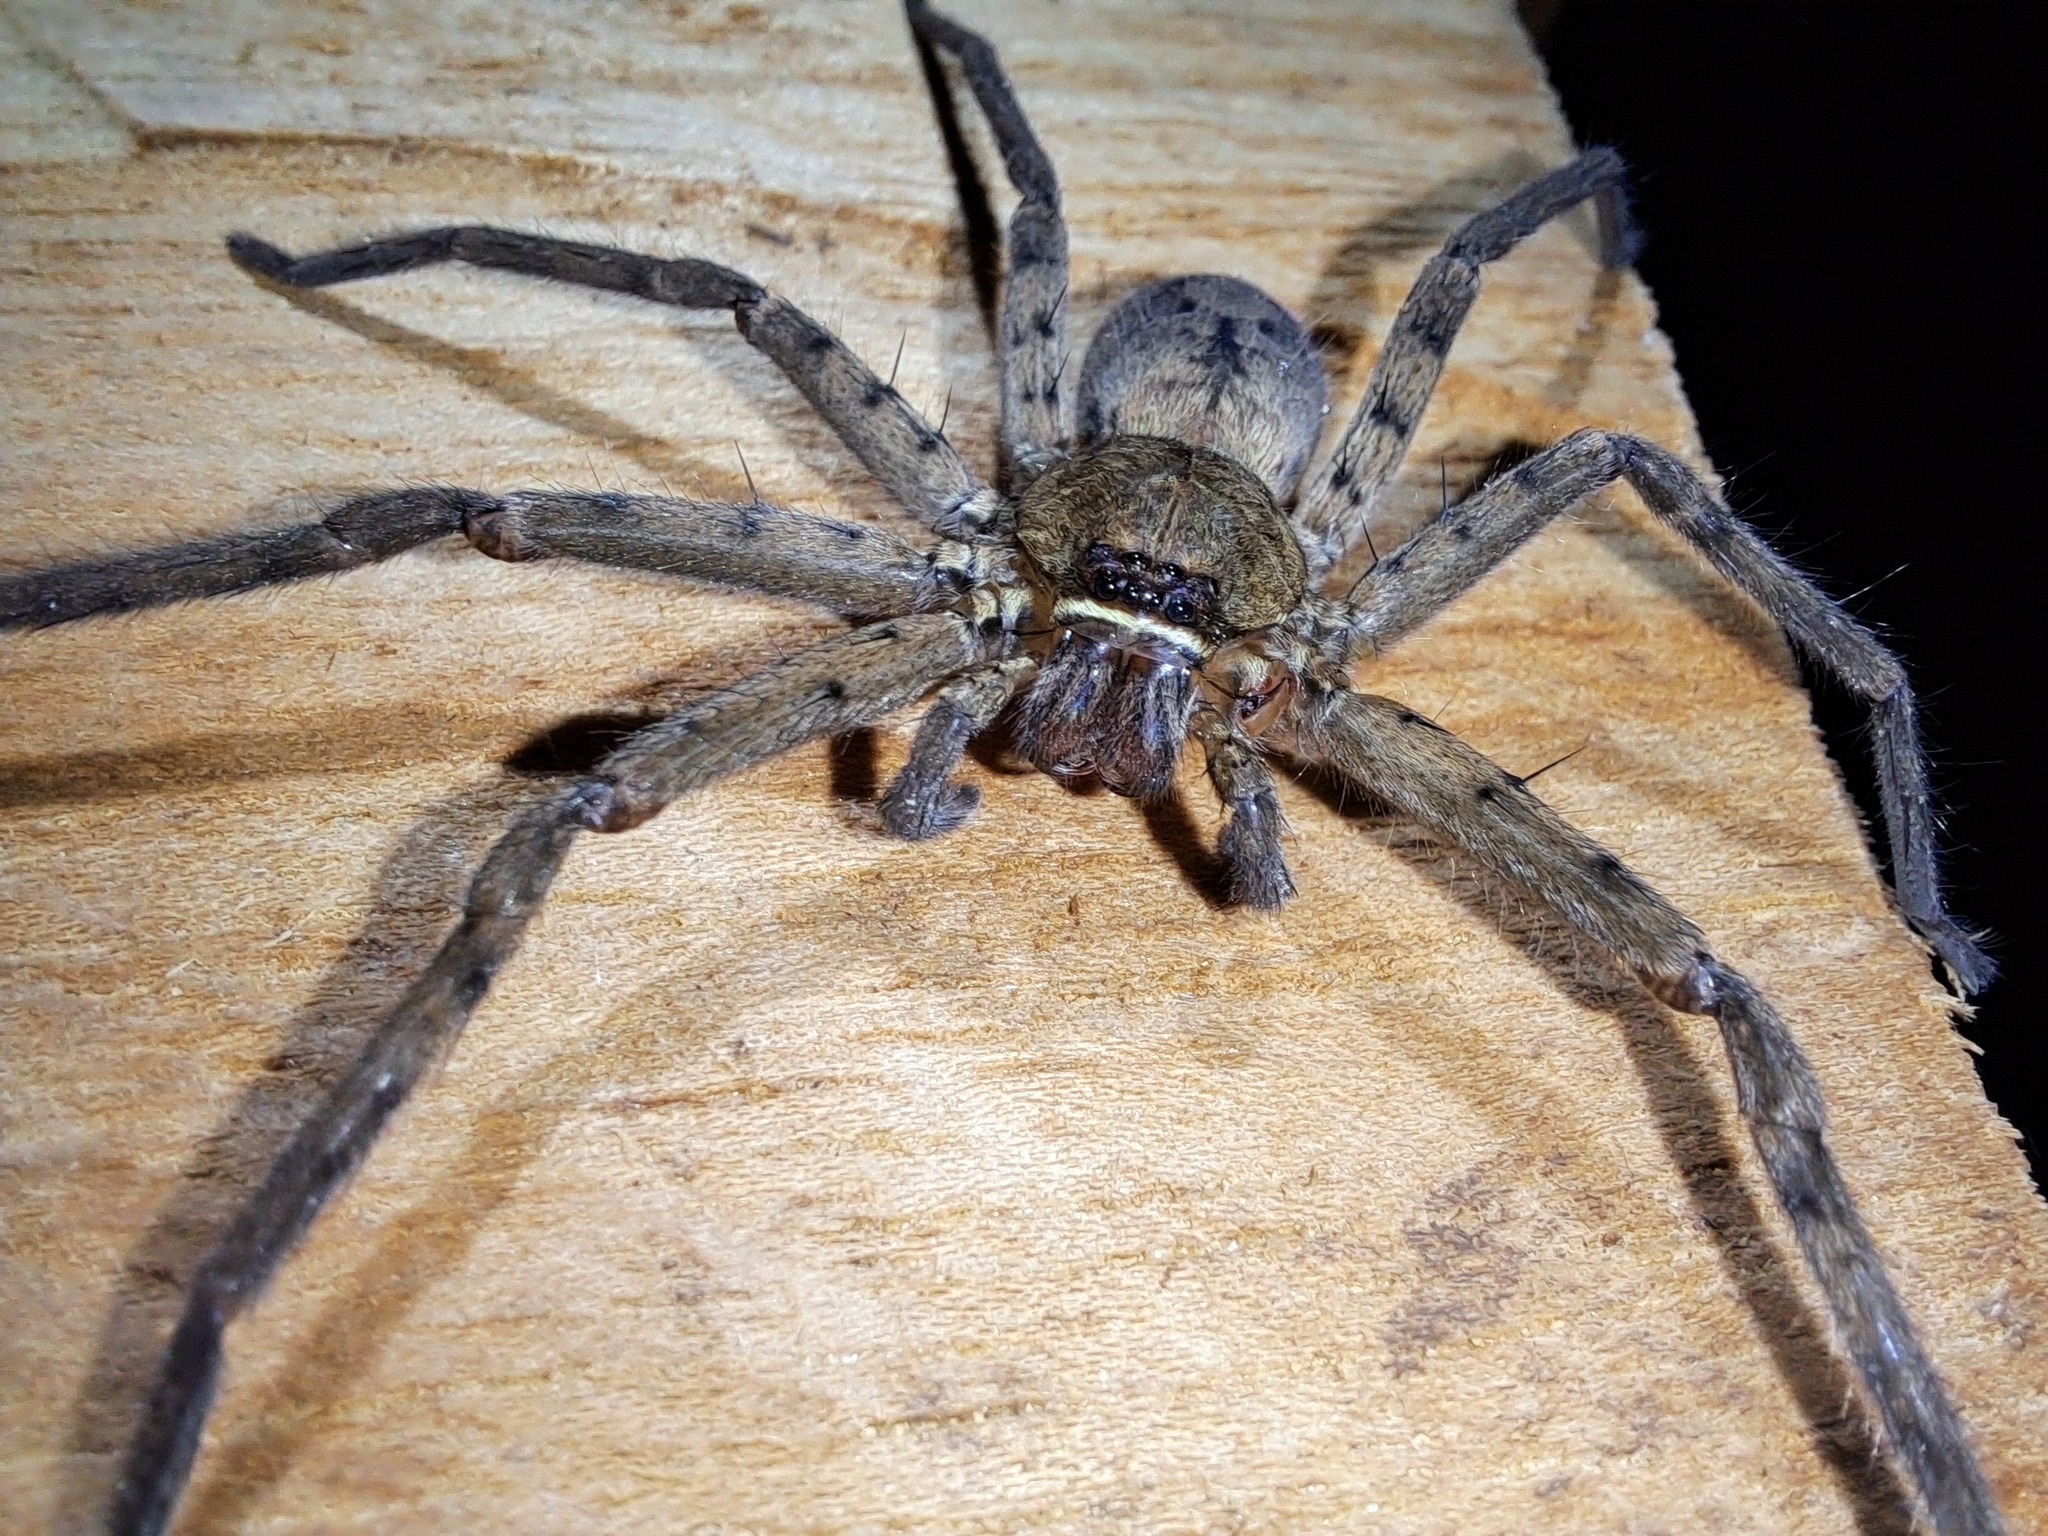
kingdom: Animalia
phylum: Arthropoda
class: Arachnida
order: Araneae
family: Sparassidae
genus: Heteropoda
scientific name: Heteropoda venatoria
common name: Huntsman spider
